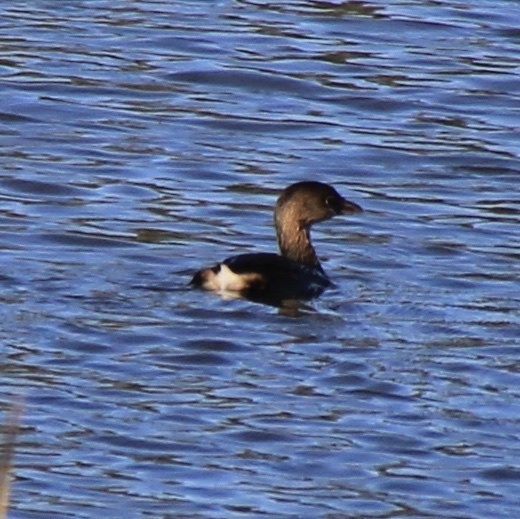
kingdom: Animalia
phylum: Chordata
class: Aves
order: Podicipediformes
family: Podicipedidae
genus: Podilymbus
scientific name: Podilymbus podiceps
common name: Pied-billed grebe
